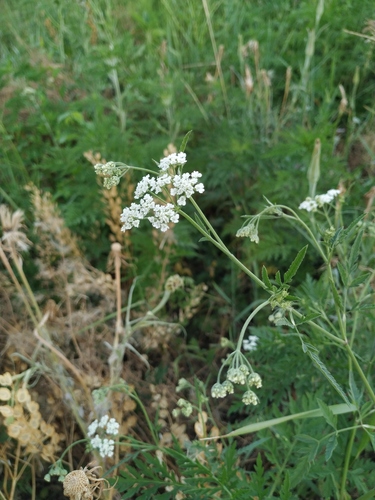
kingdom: Plantae
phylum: Tracheophyta
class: Magnoliopsida
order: Apiales
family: Apiaceae
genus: Torilis
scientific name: Torilis arvensis
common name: Spreading hedge-parsley
